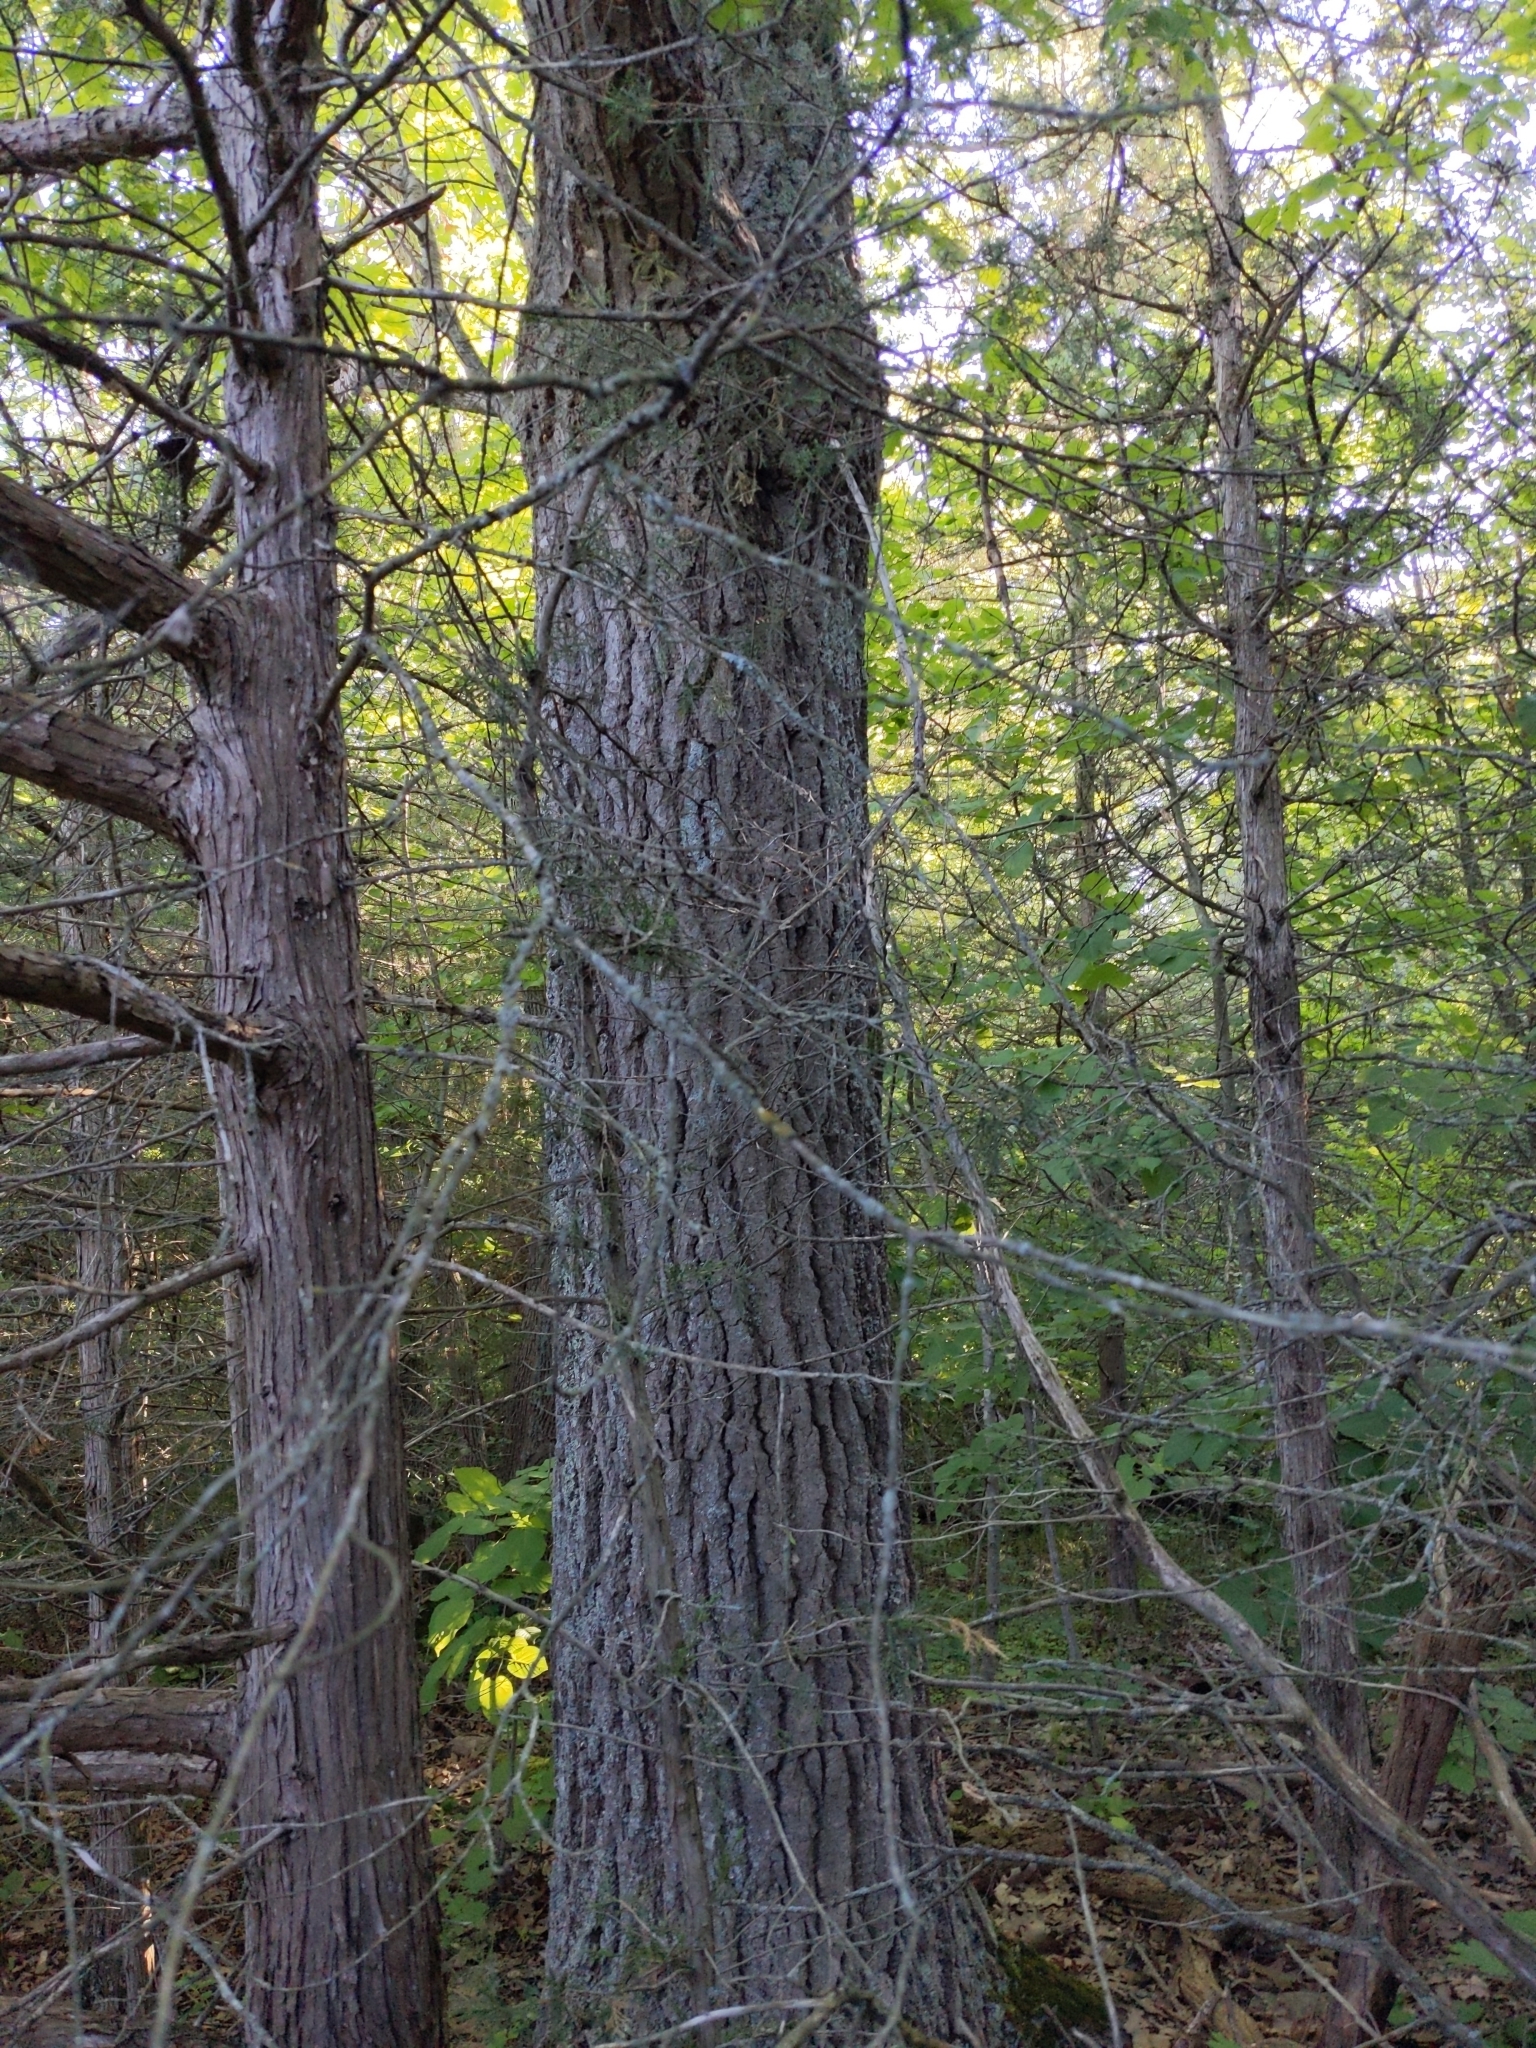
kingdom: Plantae
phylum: Tracheophyta
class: Magnoliopsida
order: Fagales
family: Fagaceae
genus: Quercus
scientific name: Quercus rubra
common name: Red oak
